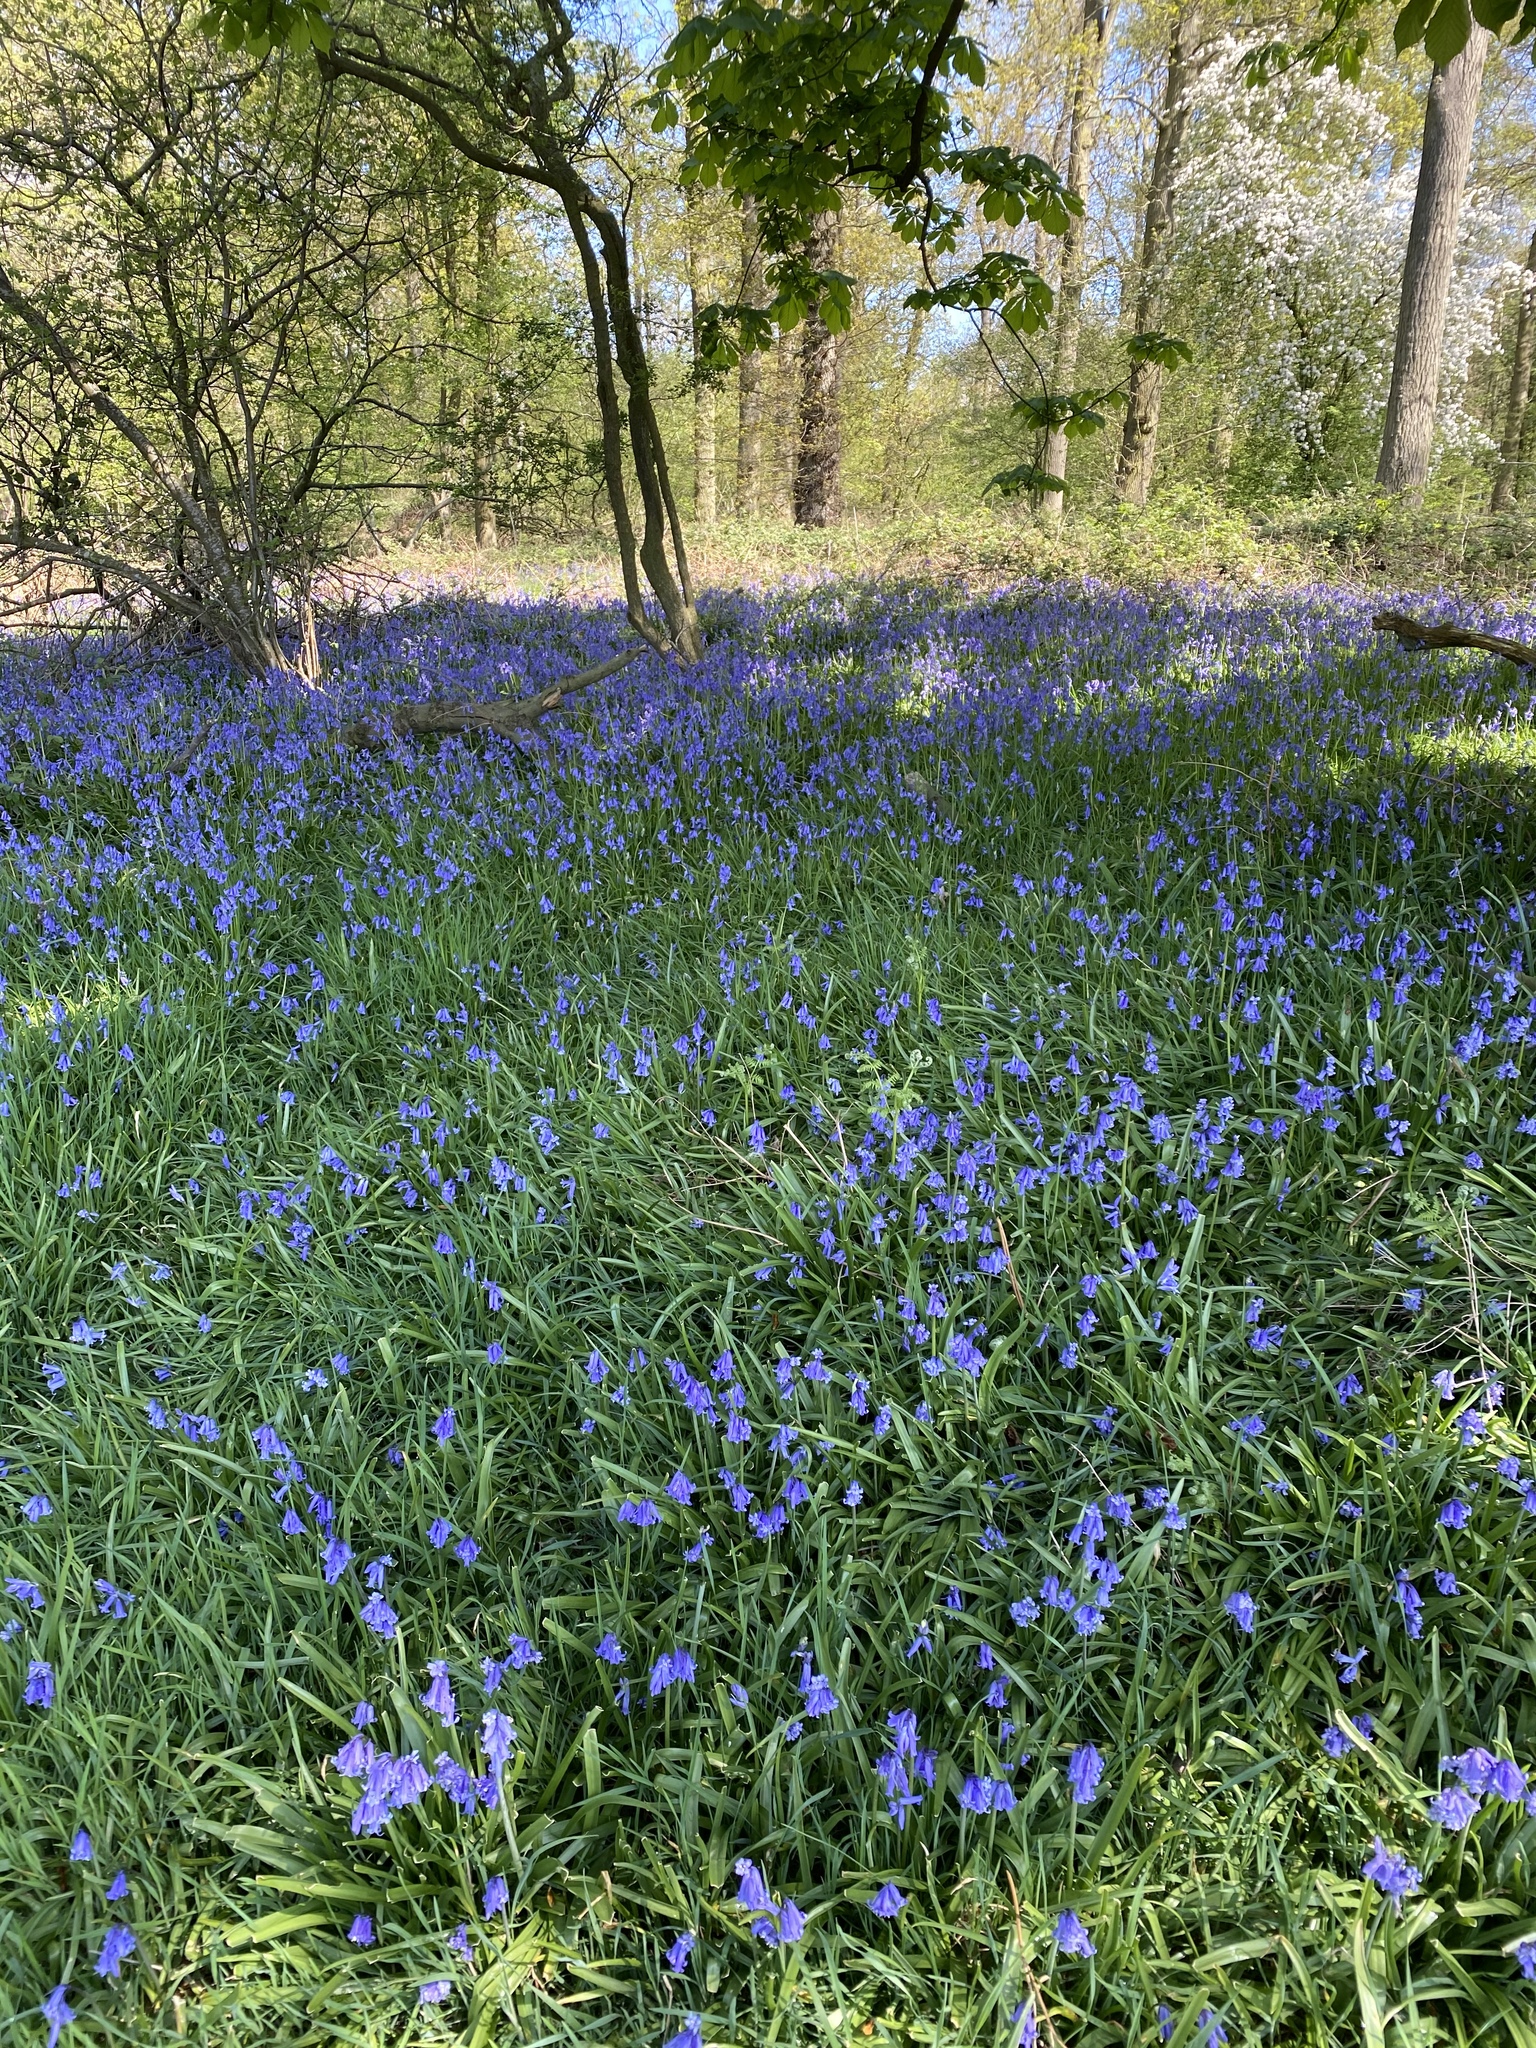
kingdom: Plantae
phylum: Tracheophyta
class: Liliopsida
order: Asparagales
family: Asparagaceae
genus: Hyacinthoides
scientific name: Hyacinthoides non-scripta
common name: Bluebell
